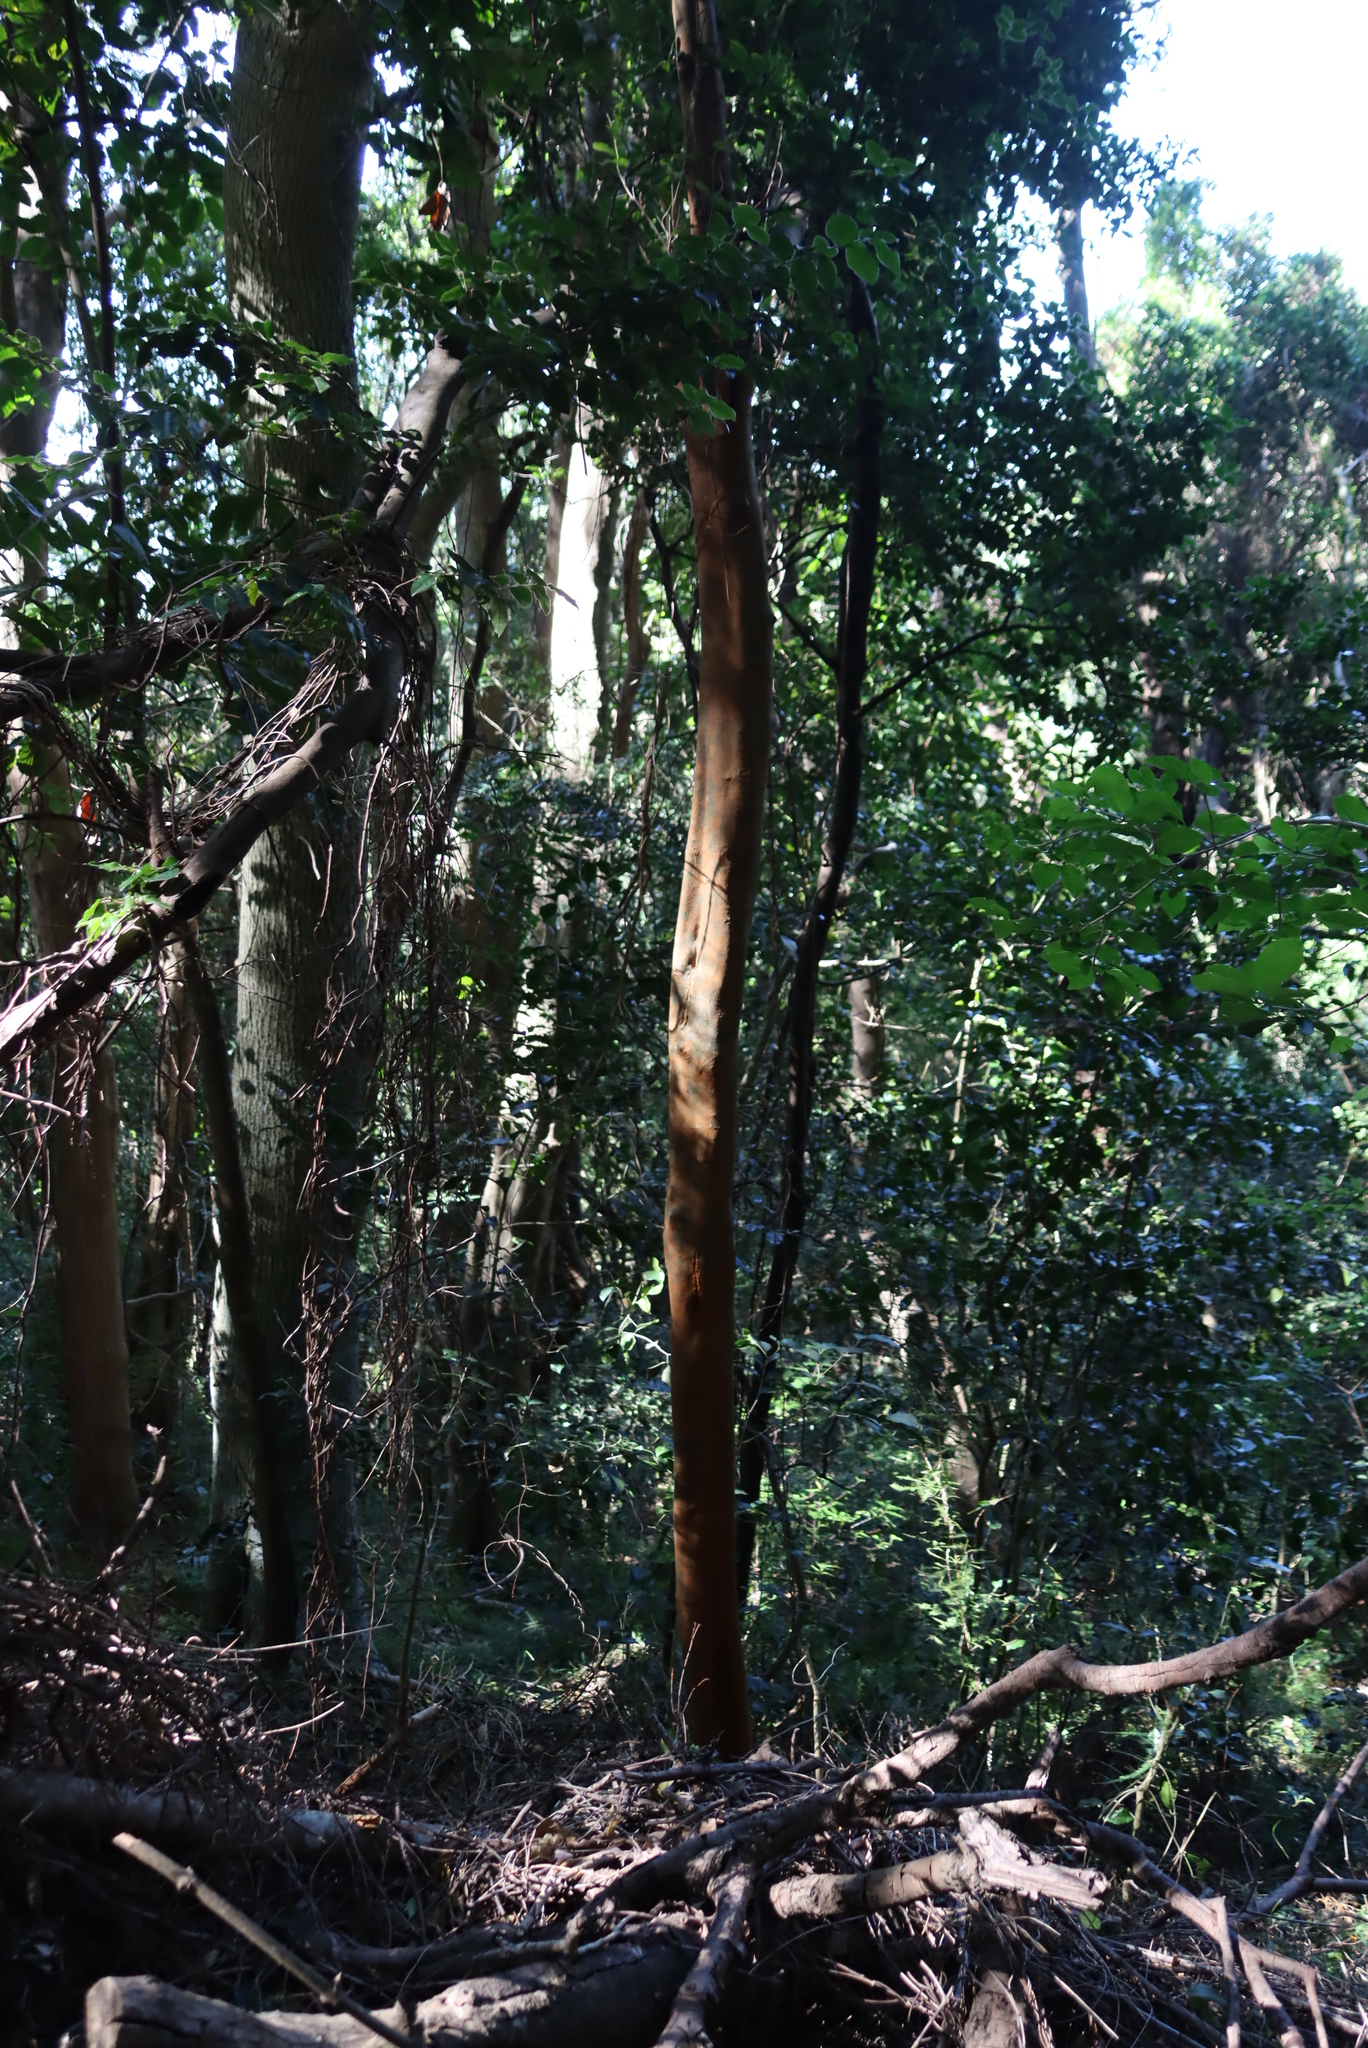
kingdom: Plantae
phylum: Tracheophyta
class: Magnoliopsida
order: Celastrales
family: Celastraceae
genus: Cassine
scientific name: Cassine peragua
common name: Cape saffron
